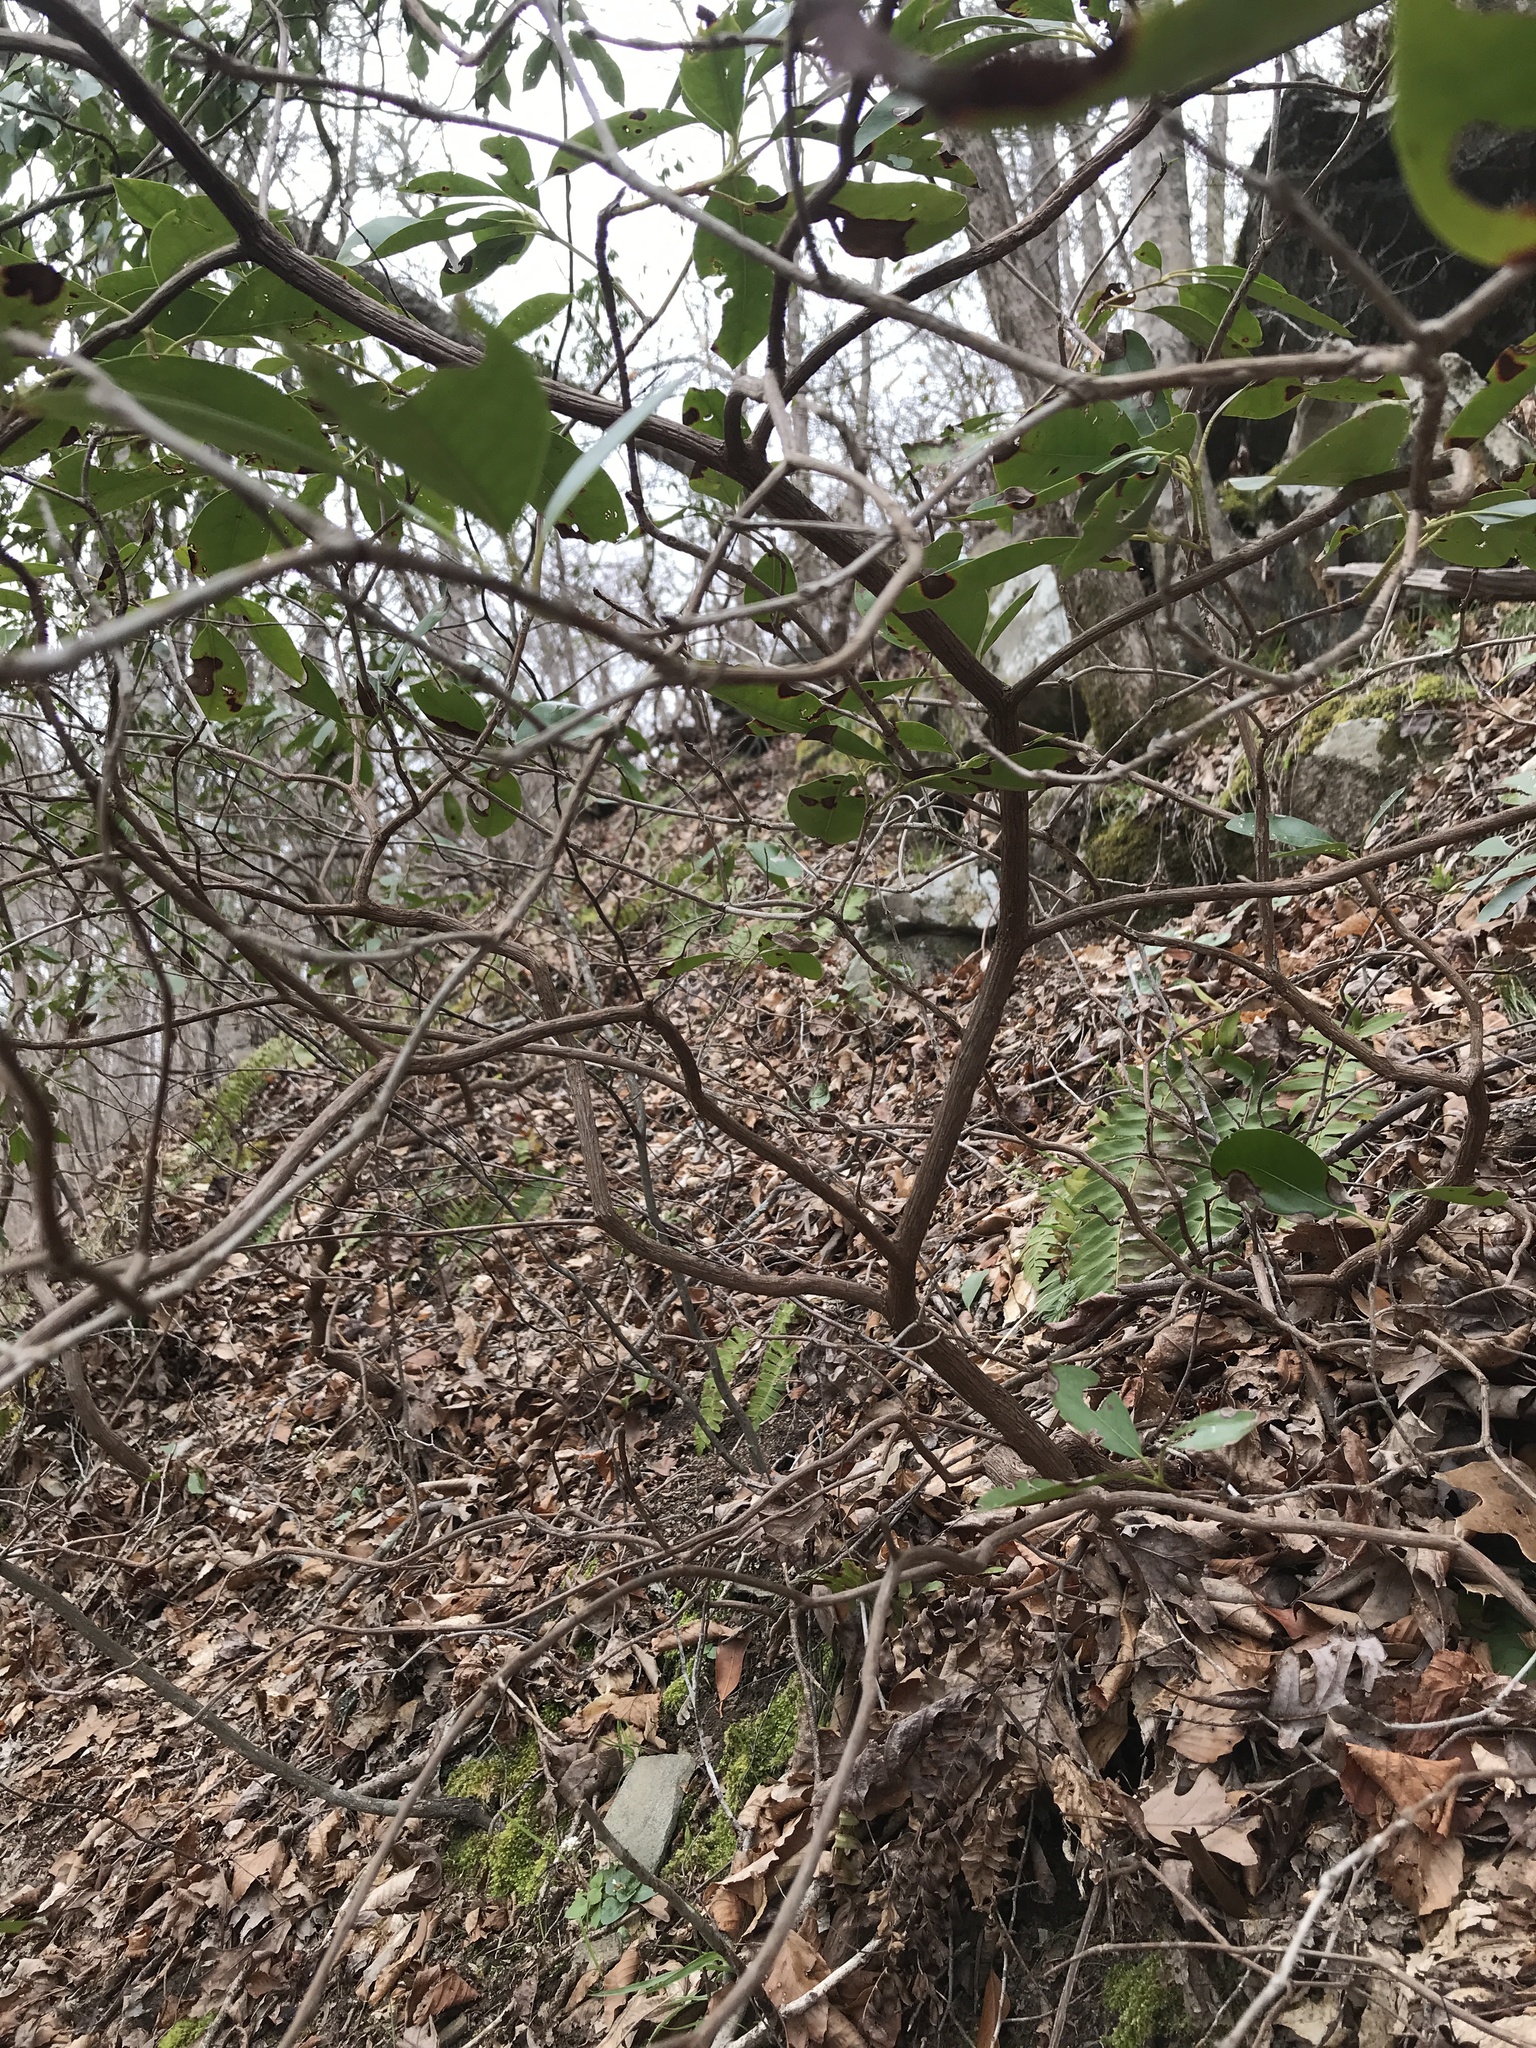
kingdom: Plantae
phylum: Tracheophyta
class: Magnoliopsida
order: Ericales
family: Ericaceae
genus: Kalmia
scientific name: Kalmia latifolia
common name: Mountain-laurel
